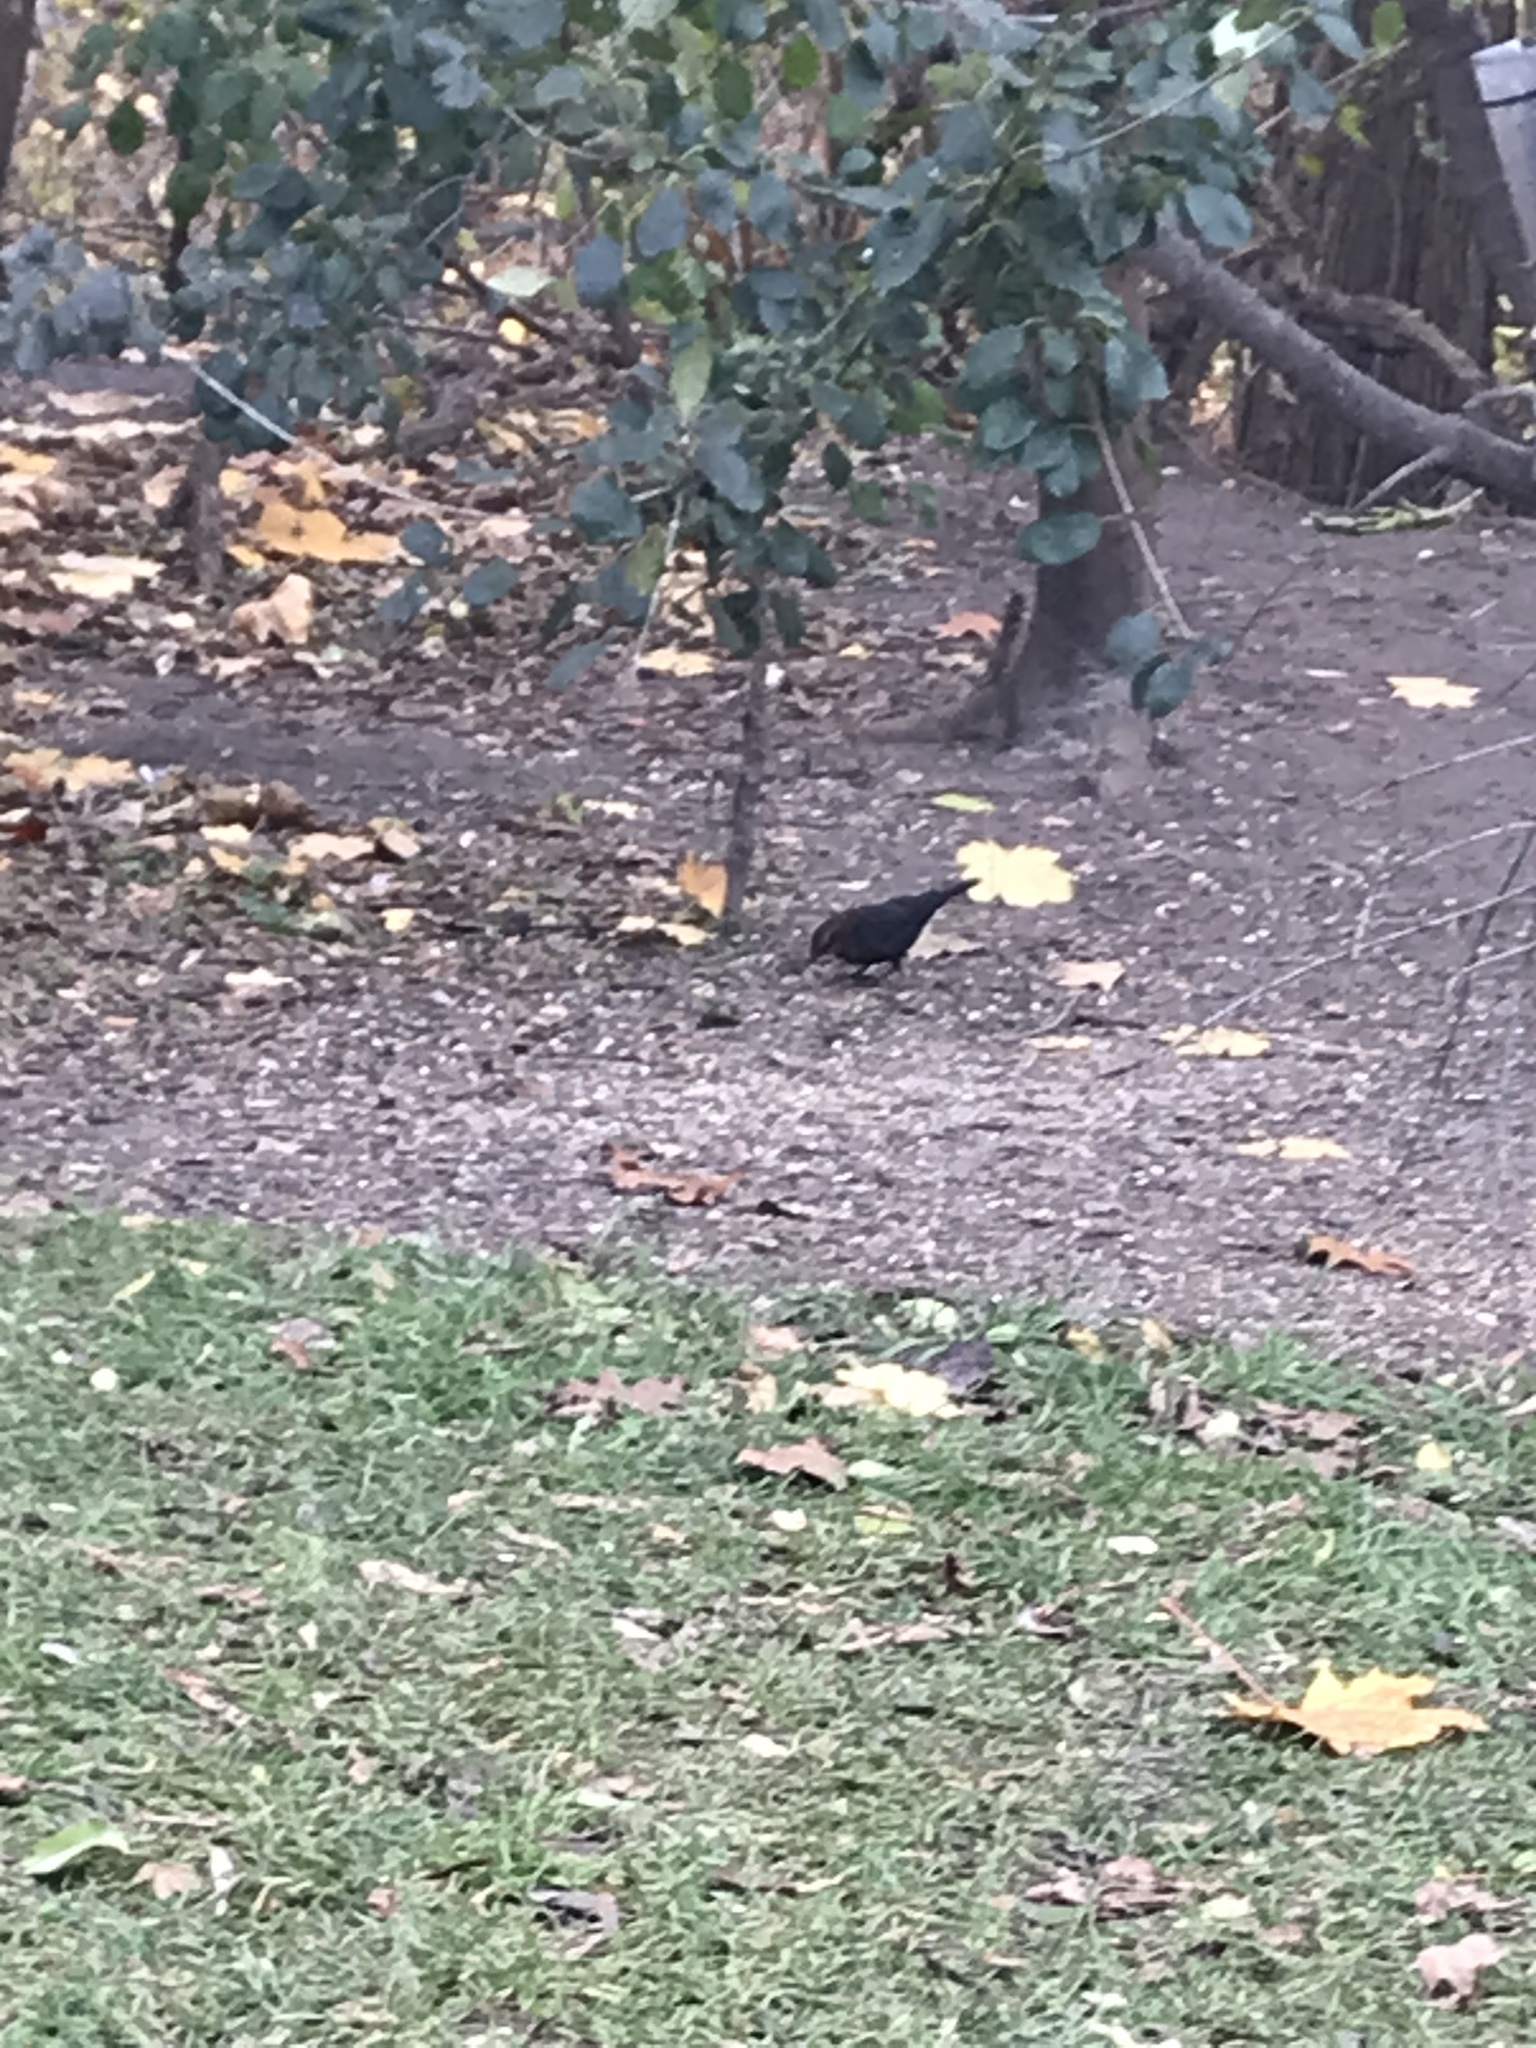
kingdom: Animalia
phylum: Chordata
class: Aves
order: Passeriformes
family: Icteridae
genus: Euphagus
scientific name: Euphagus carolinus
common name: Rusty blackbird
